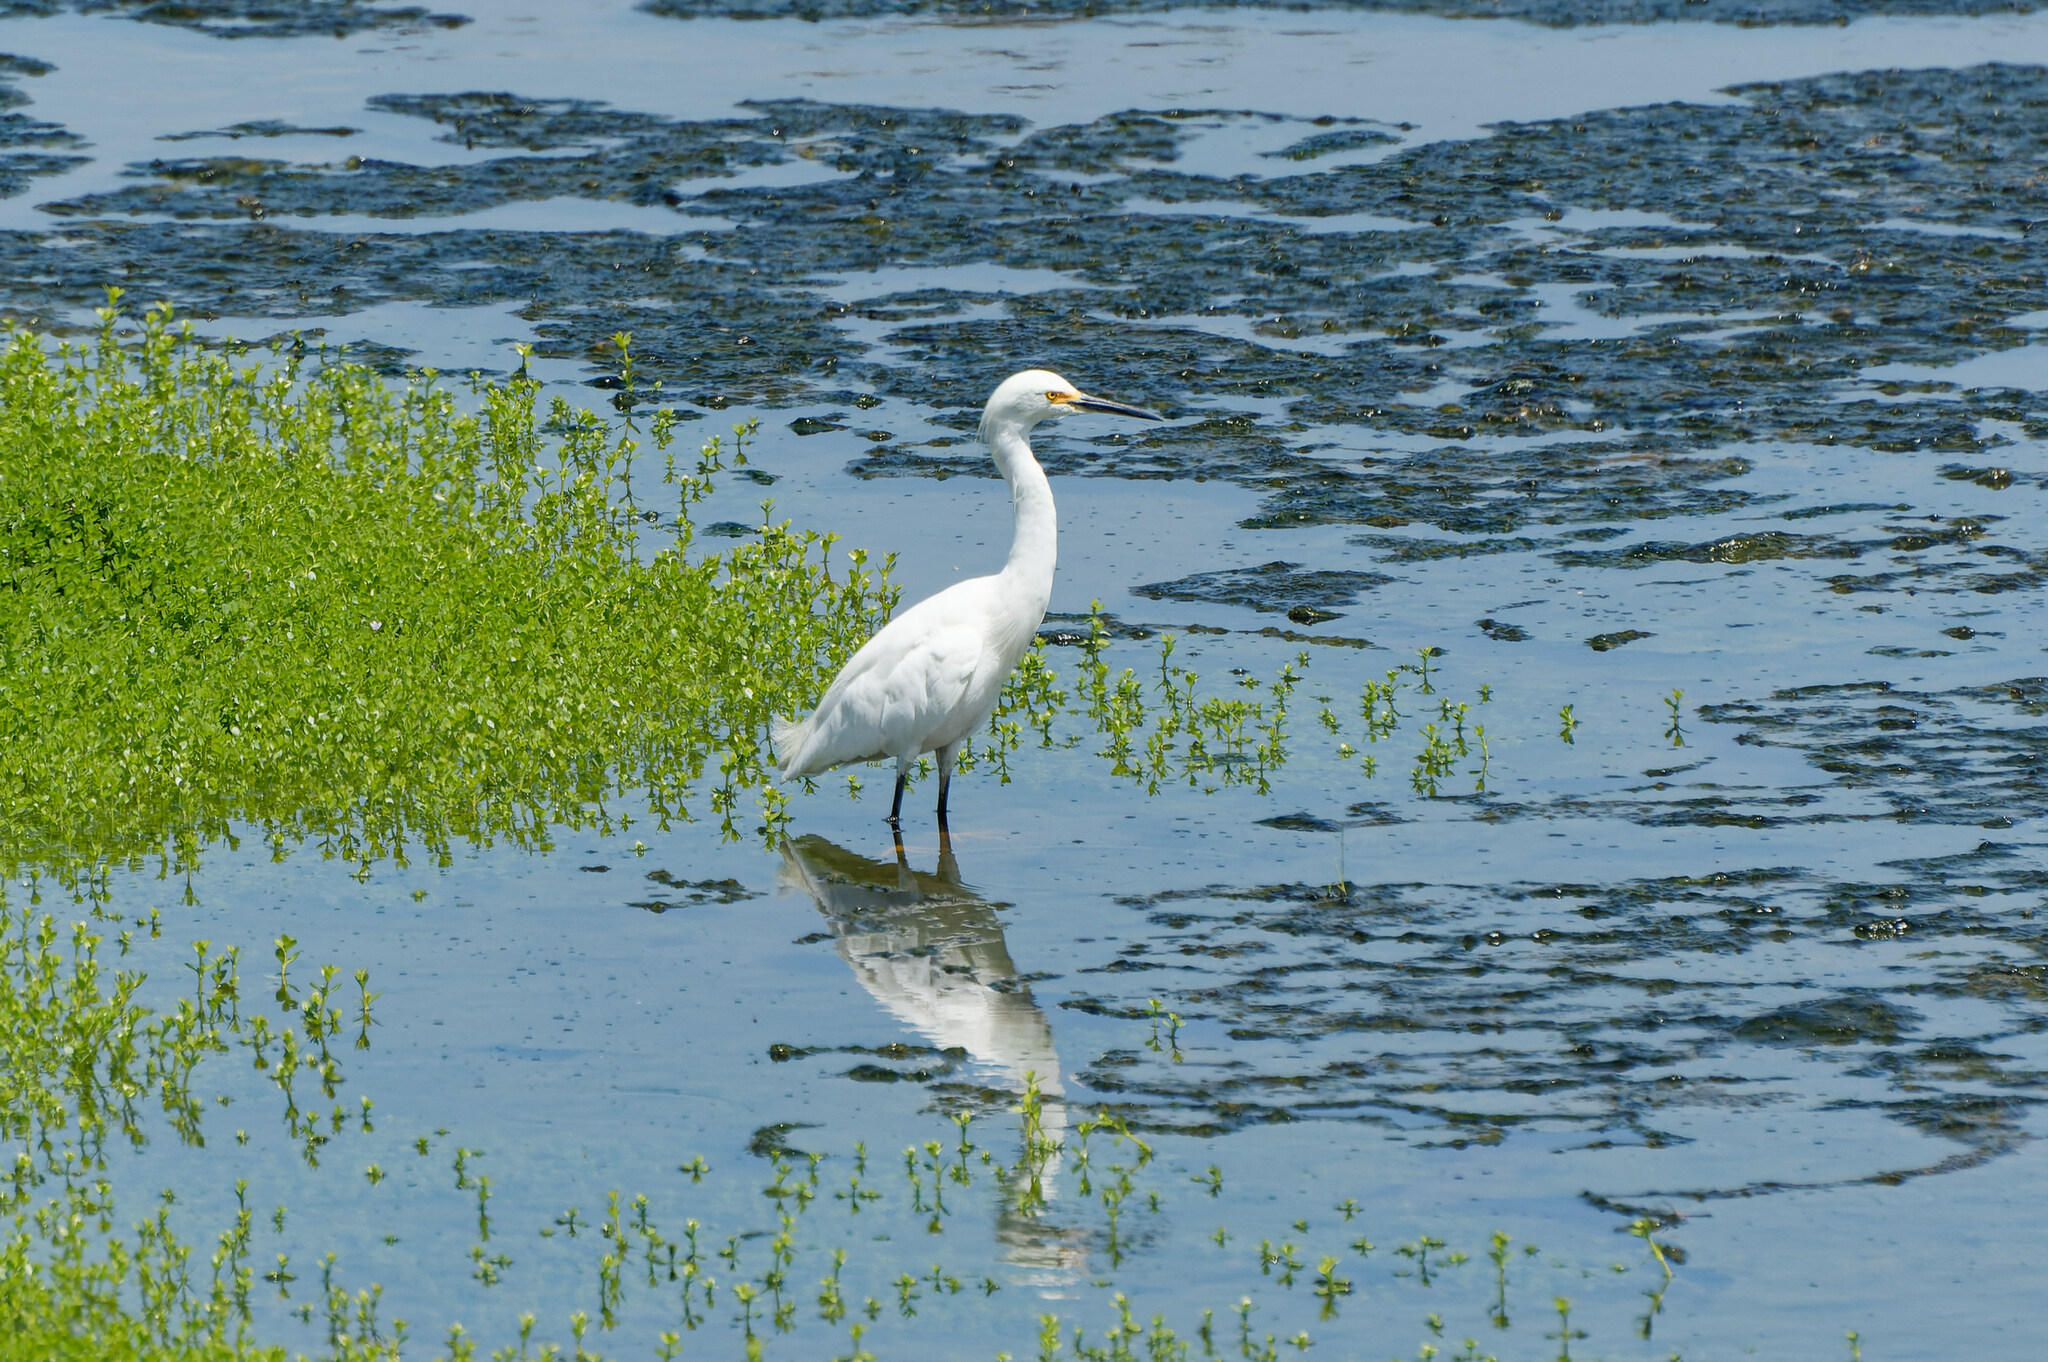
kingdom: Animalia
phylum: Chordata
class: Aves
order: Pelecaniformes
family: Ardeidae
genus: Egretta
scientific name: Egretta thula
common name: Snowy egret
